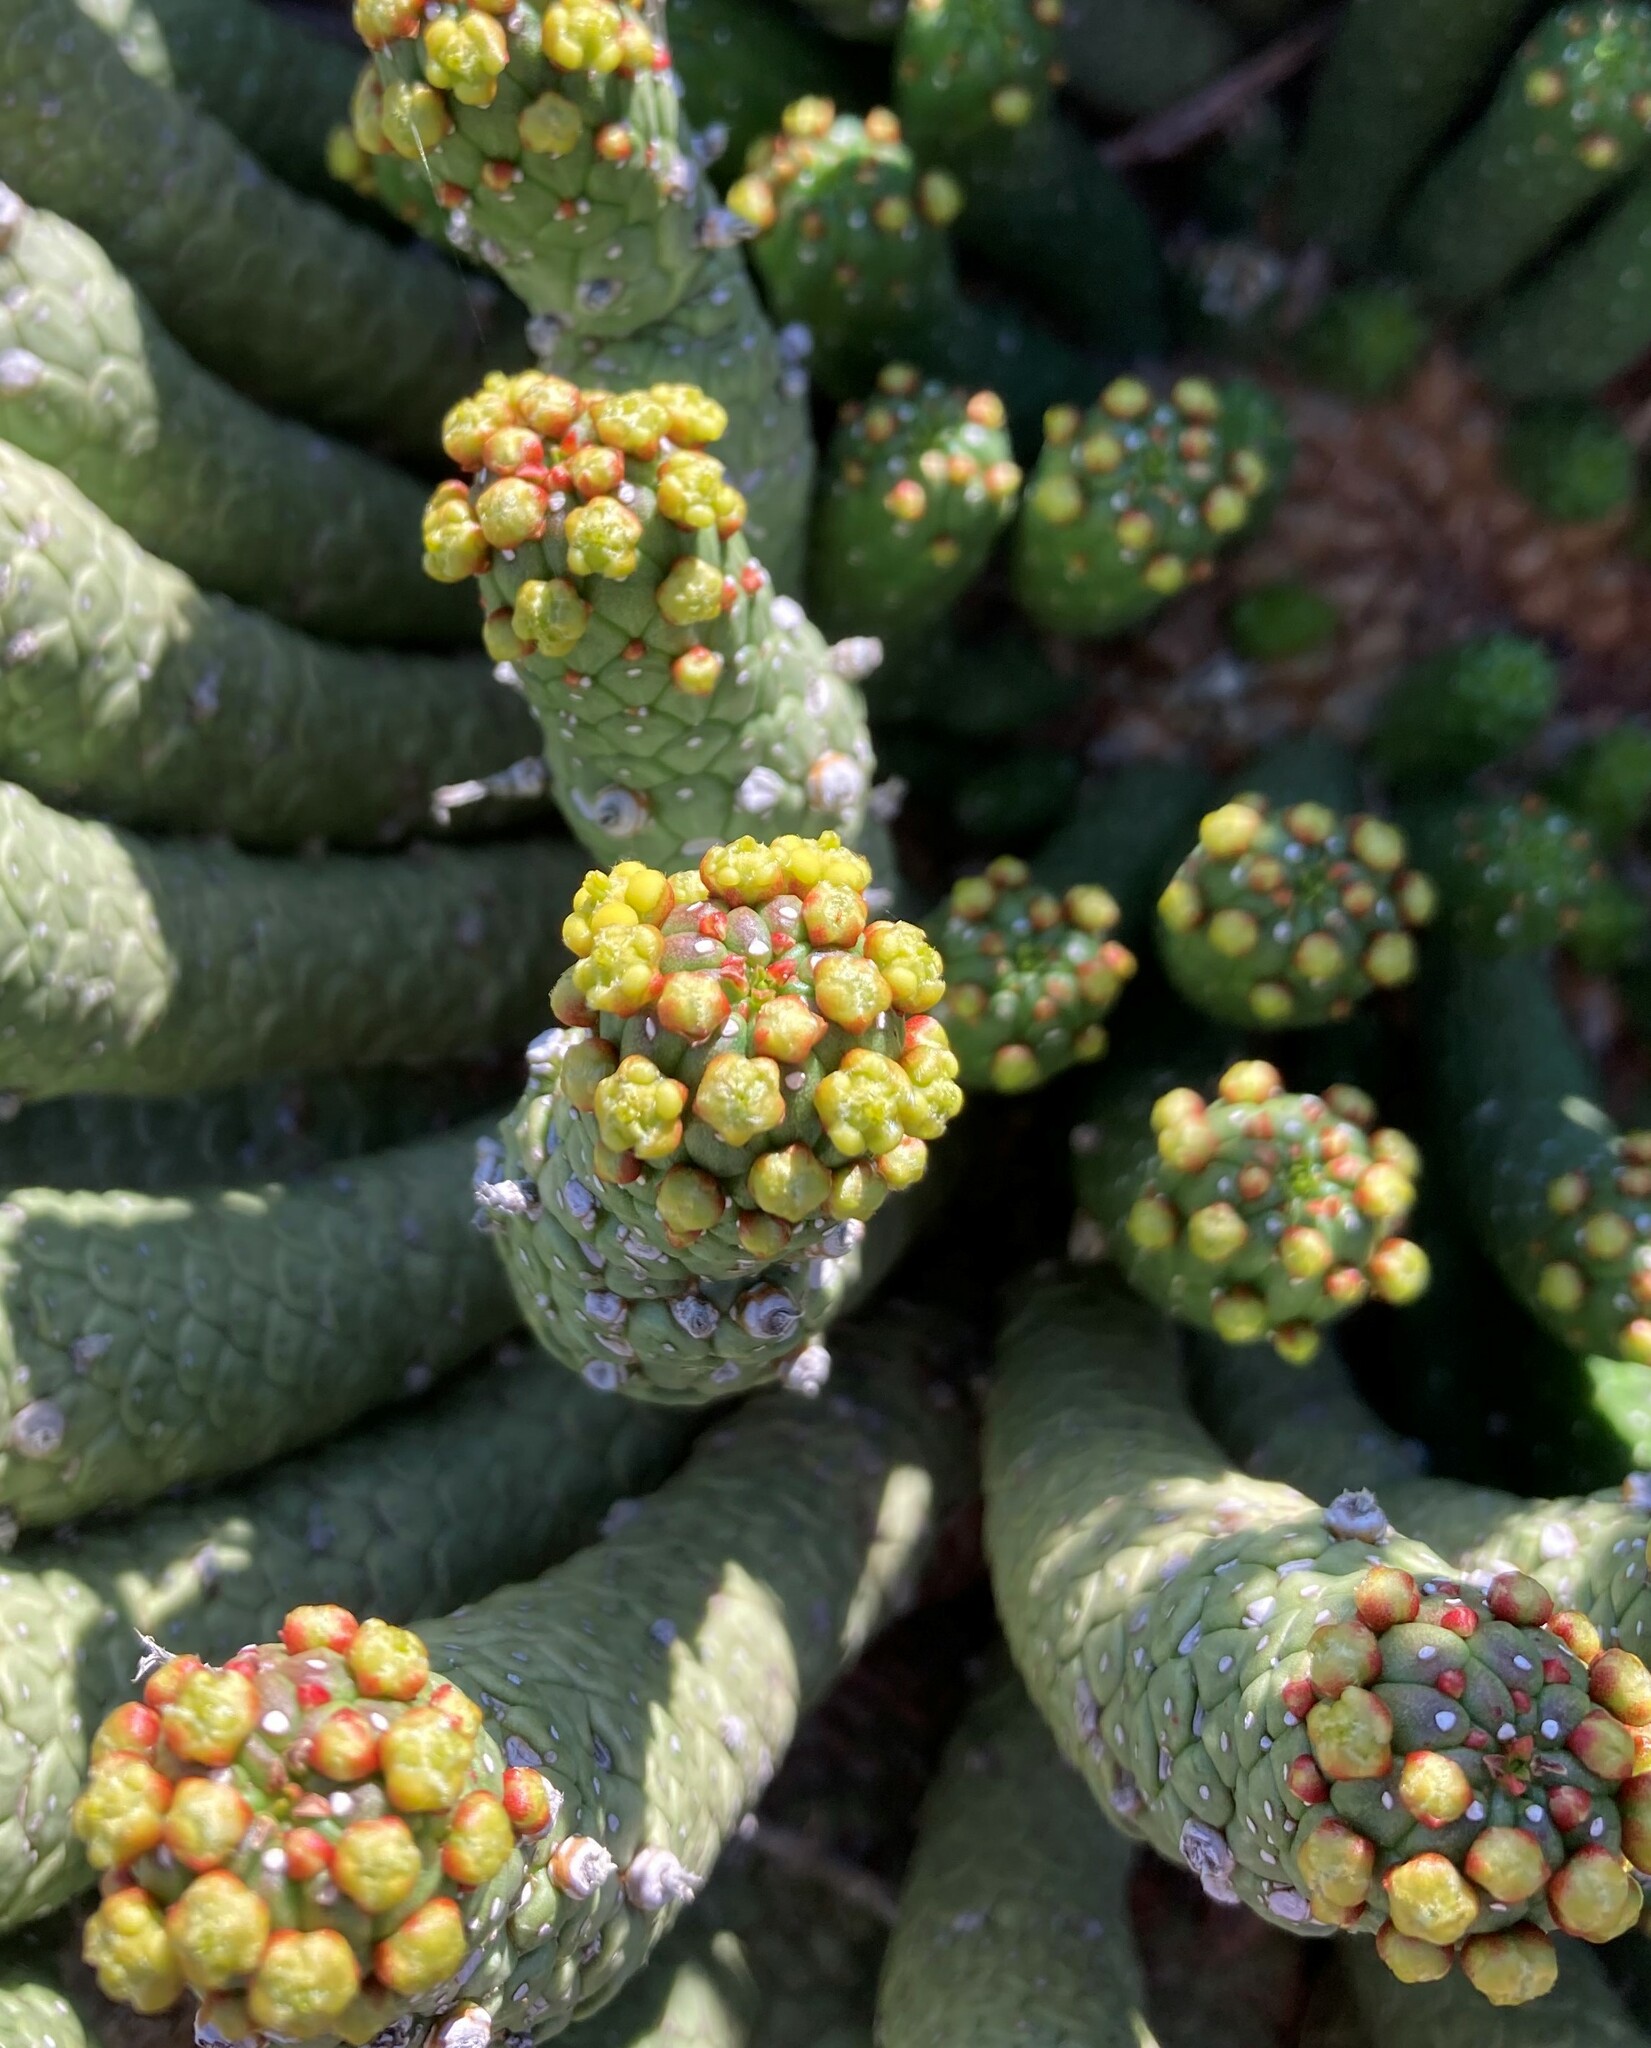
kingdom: Plantae
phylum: Tracheophyta
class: Magnoliopsida
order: Malpighiales
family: Euphorbiaceae
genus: Euphorbia
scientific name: Euphorbia colliculina
